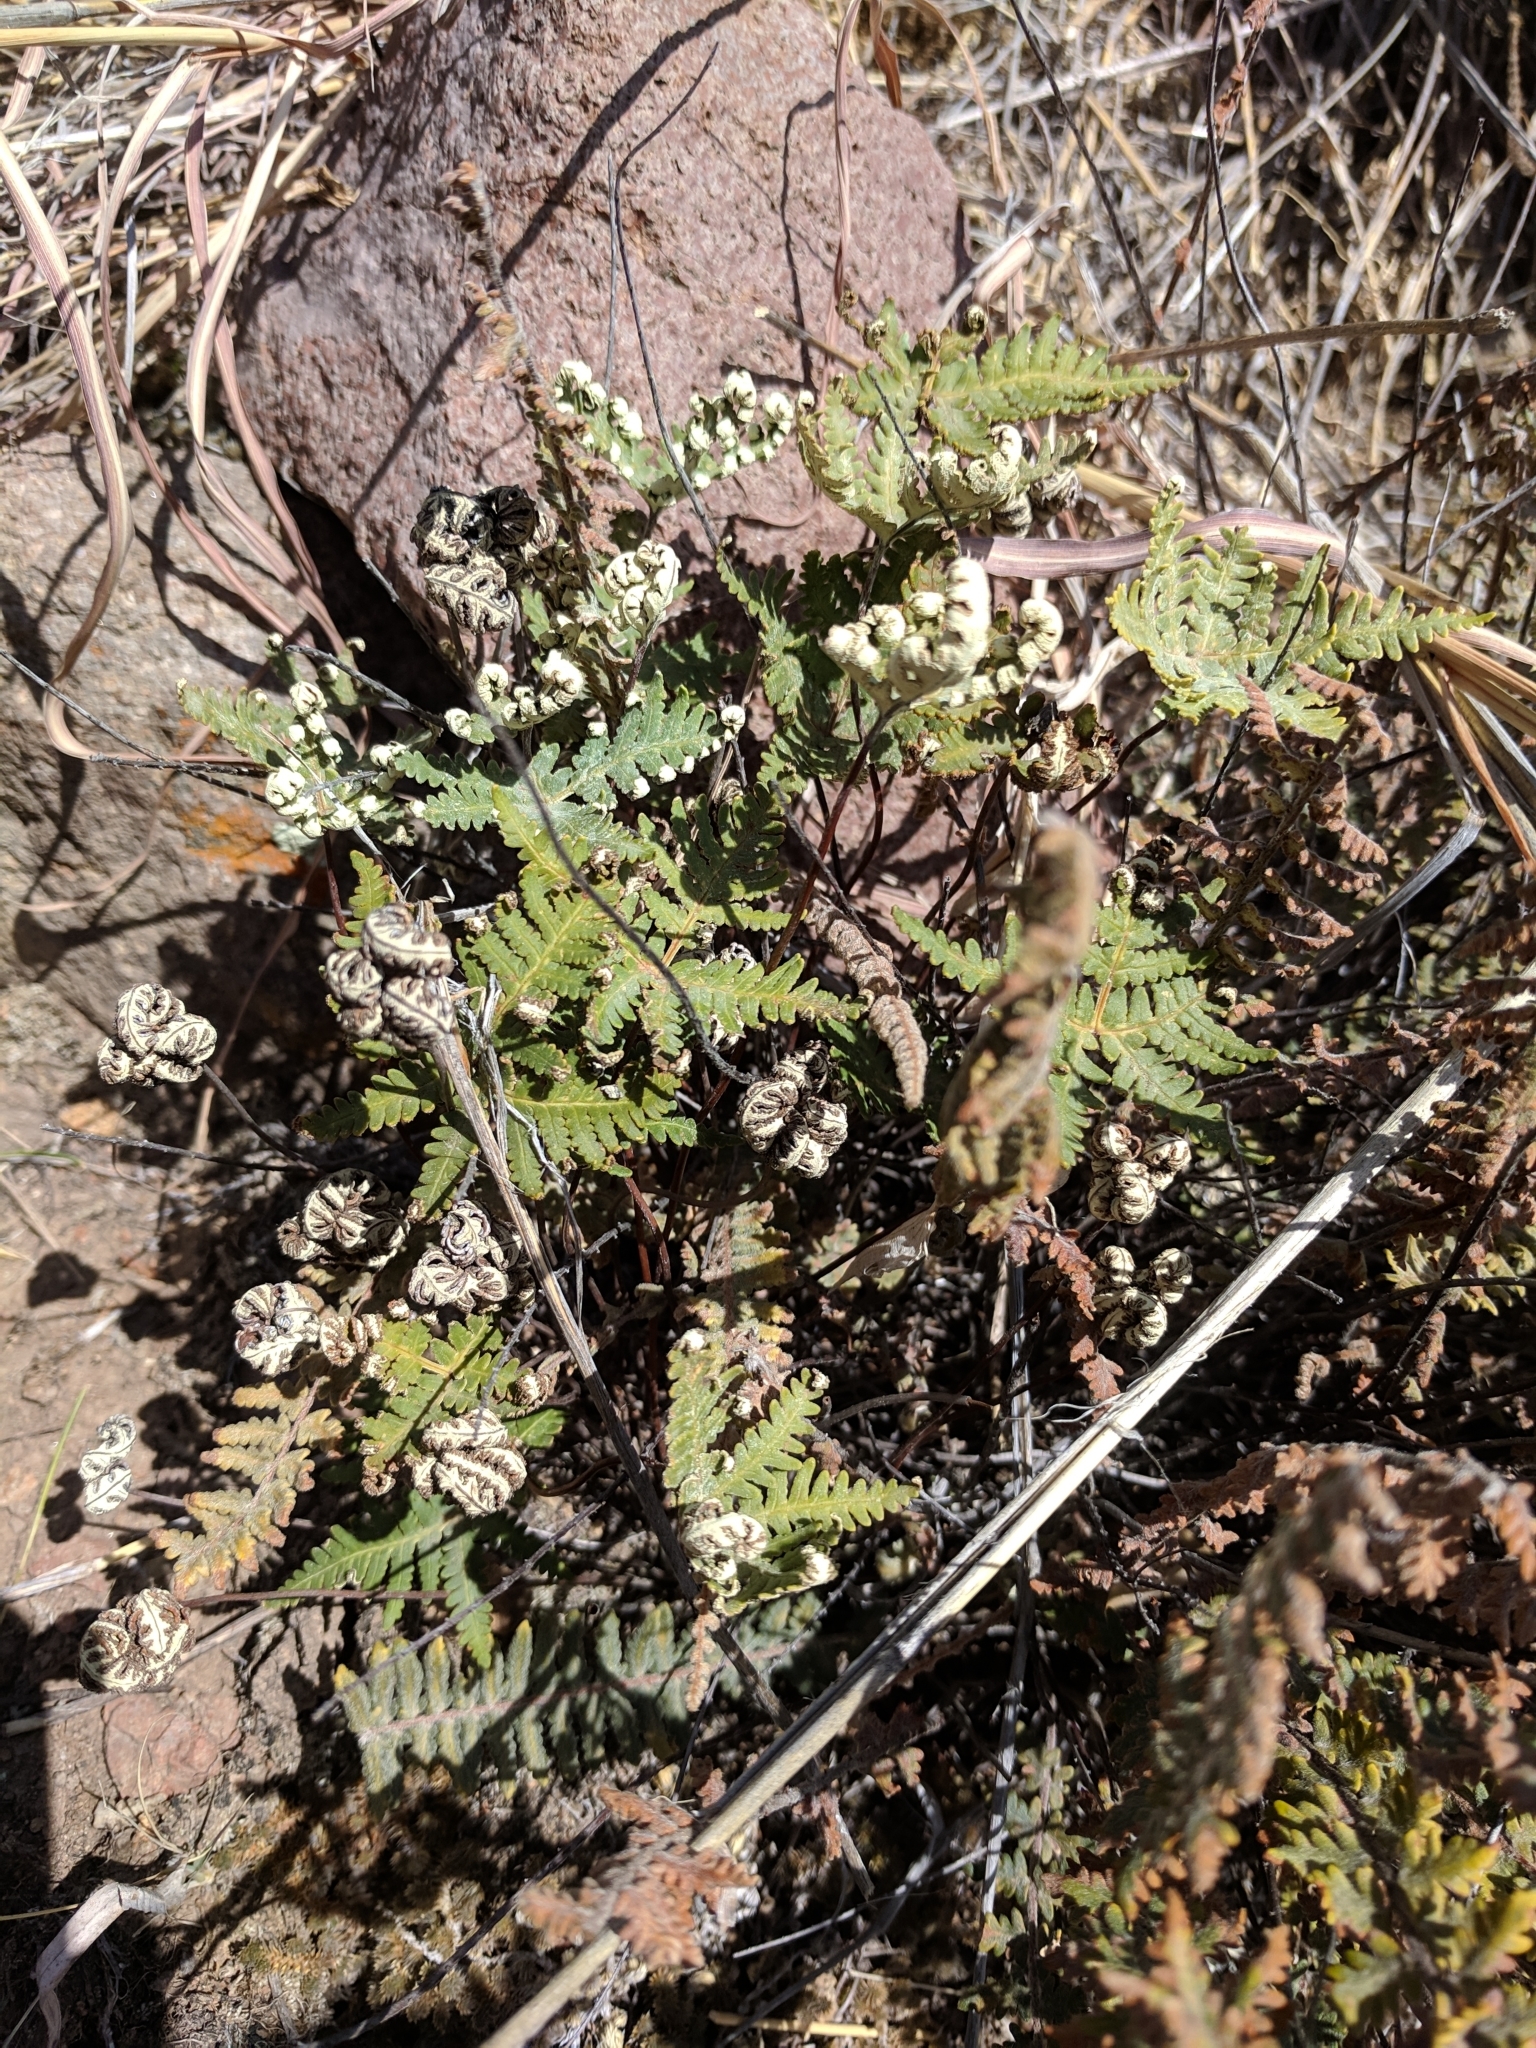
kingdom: Plantae
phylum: Tracheophyta
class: Polypodiopsida
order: Polypodiales
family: Pteridaceae
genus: Notholaena
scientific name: Notholaena standleyi
